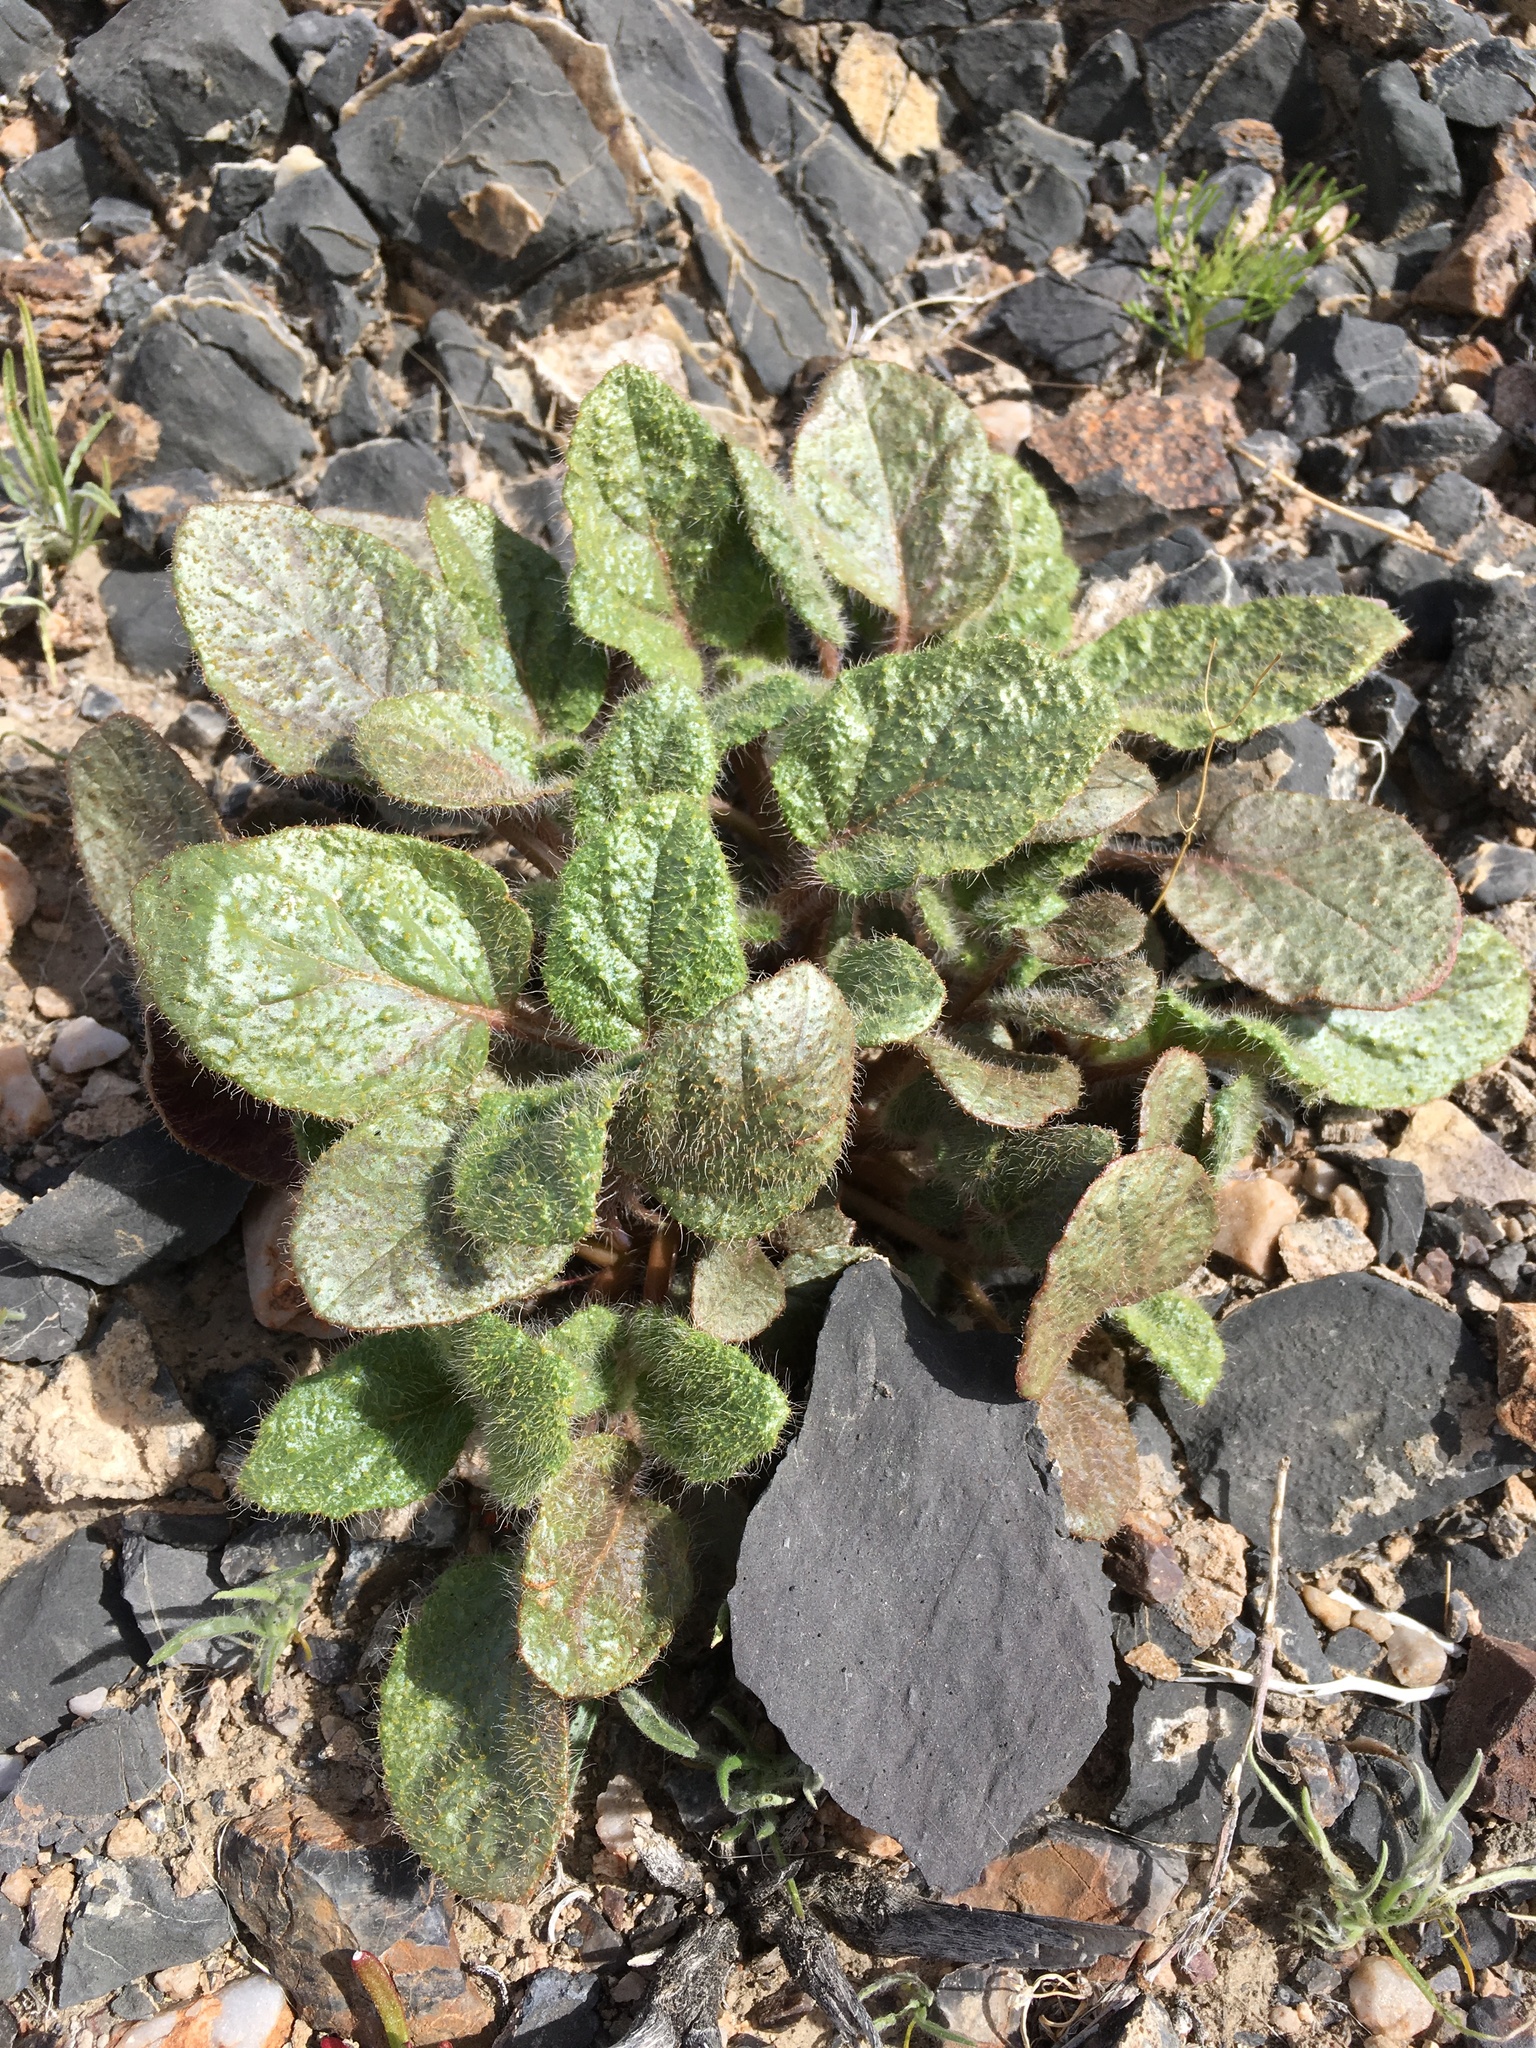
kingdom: Plantae
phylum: Tracheophyta
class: Magnoliopsida
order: Caryophyllales
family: Nyctaginaceae
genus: Anulocaulis
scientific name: Anulocaulis annulatus
